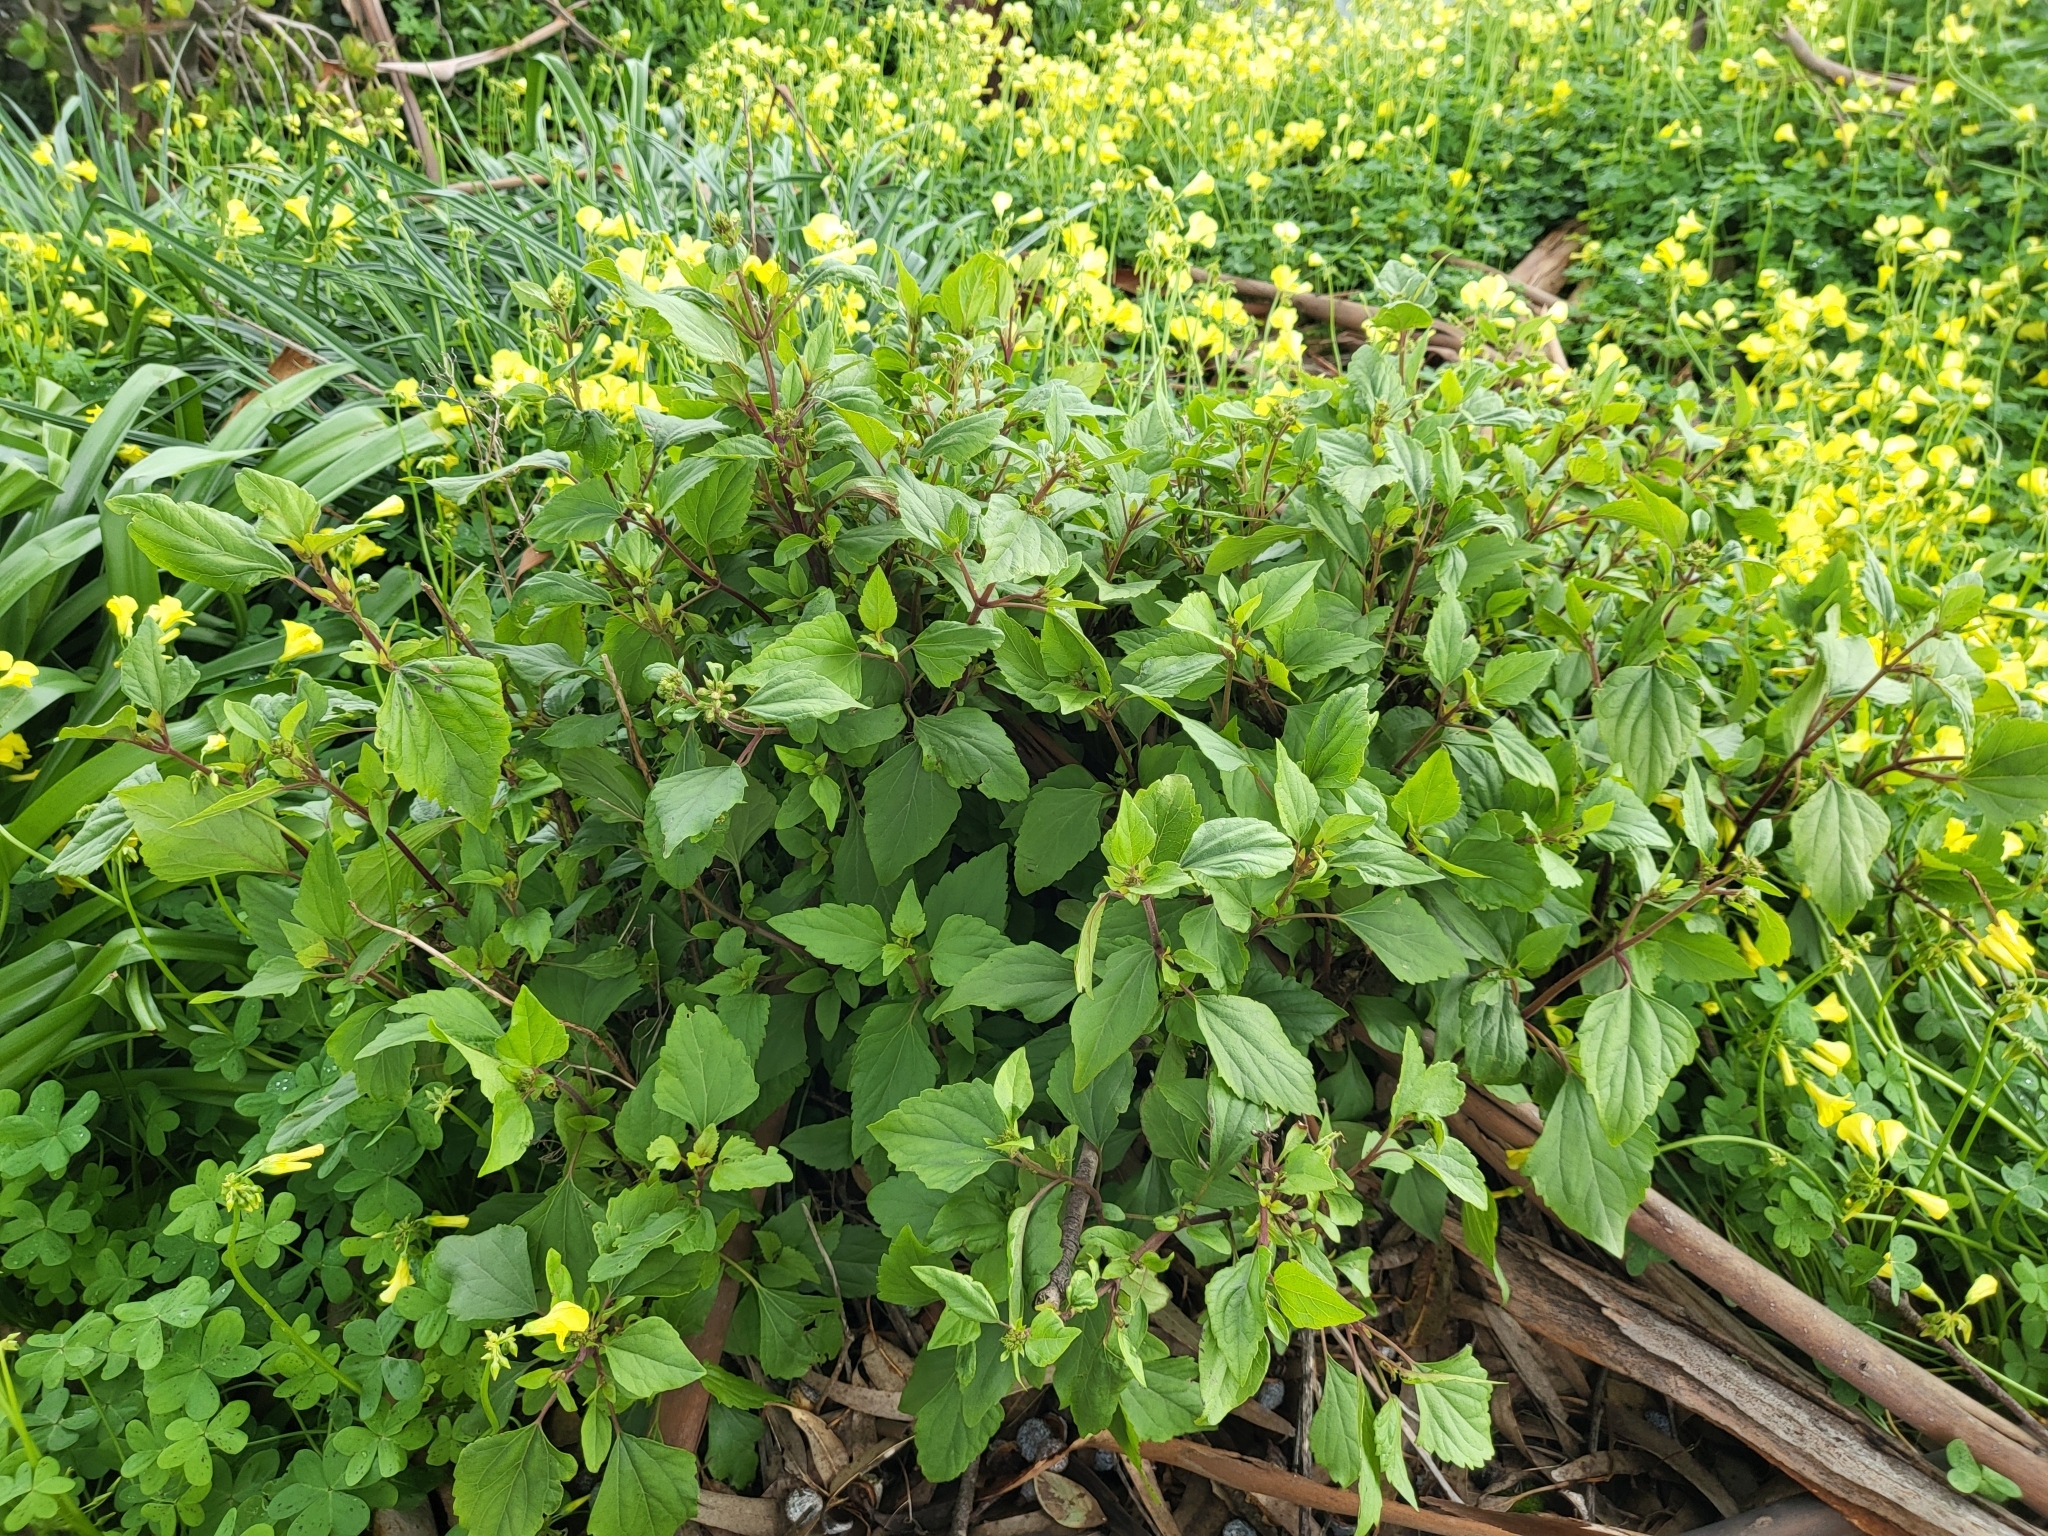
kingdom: Plantae
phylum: Tracheophyta
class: Magnoliopsida
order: Asterales
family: Asteraceae
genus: Ageratina
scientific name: Ageratina adenophora
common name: Sticky snakeroot
